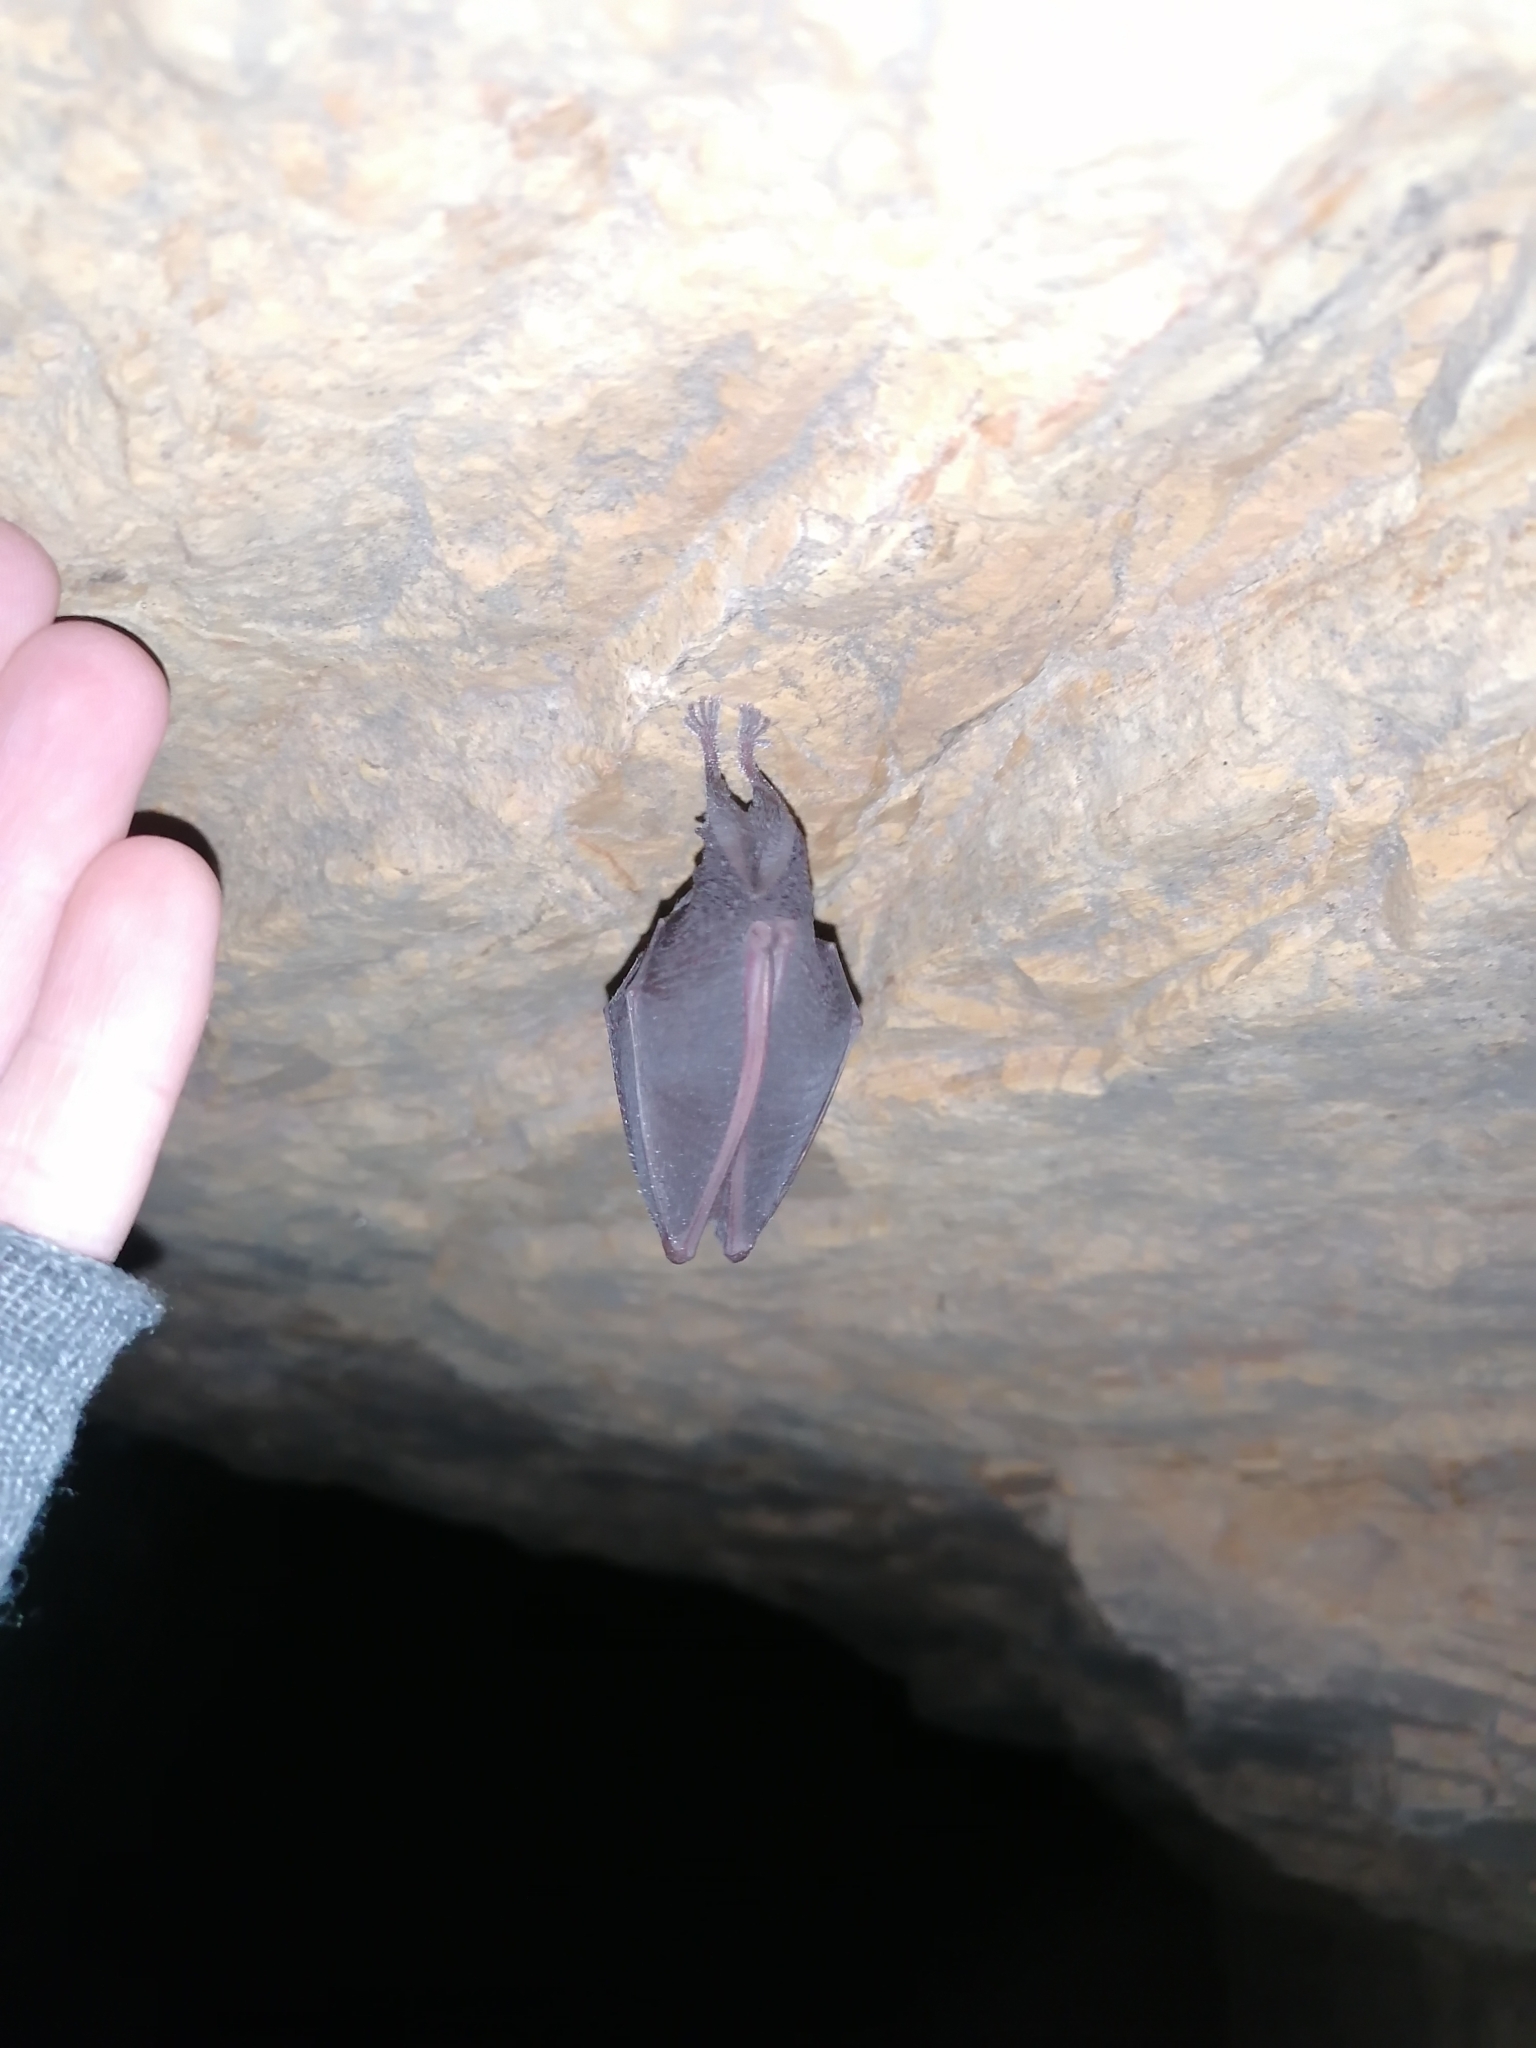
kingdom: Animalia
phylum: Chordata
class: Mammalia
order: Chiroptera
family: Rhinolophidae
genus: Rhinolophus
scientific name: Rhinolophus hipposideros
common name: Lesser horseshoe bat
